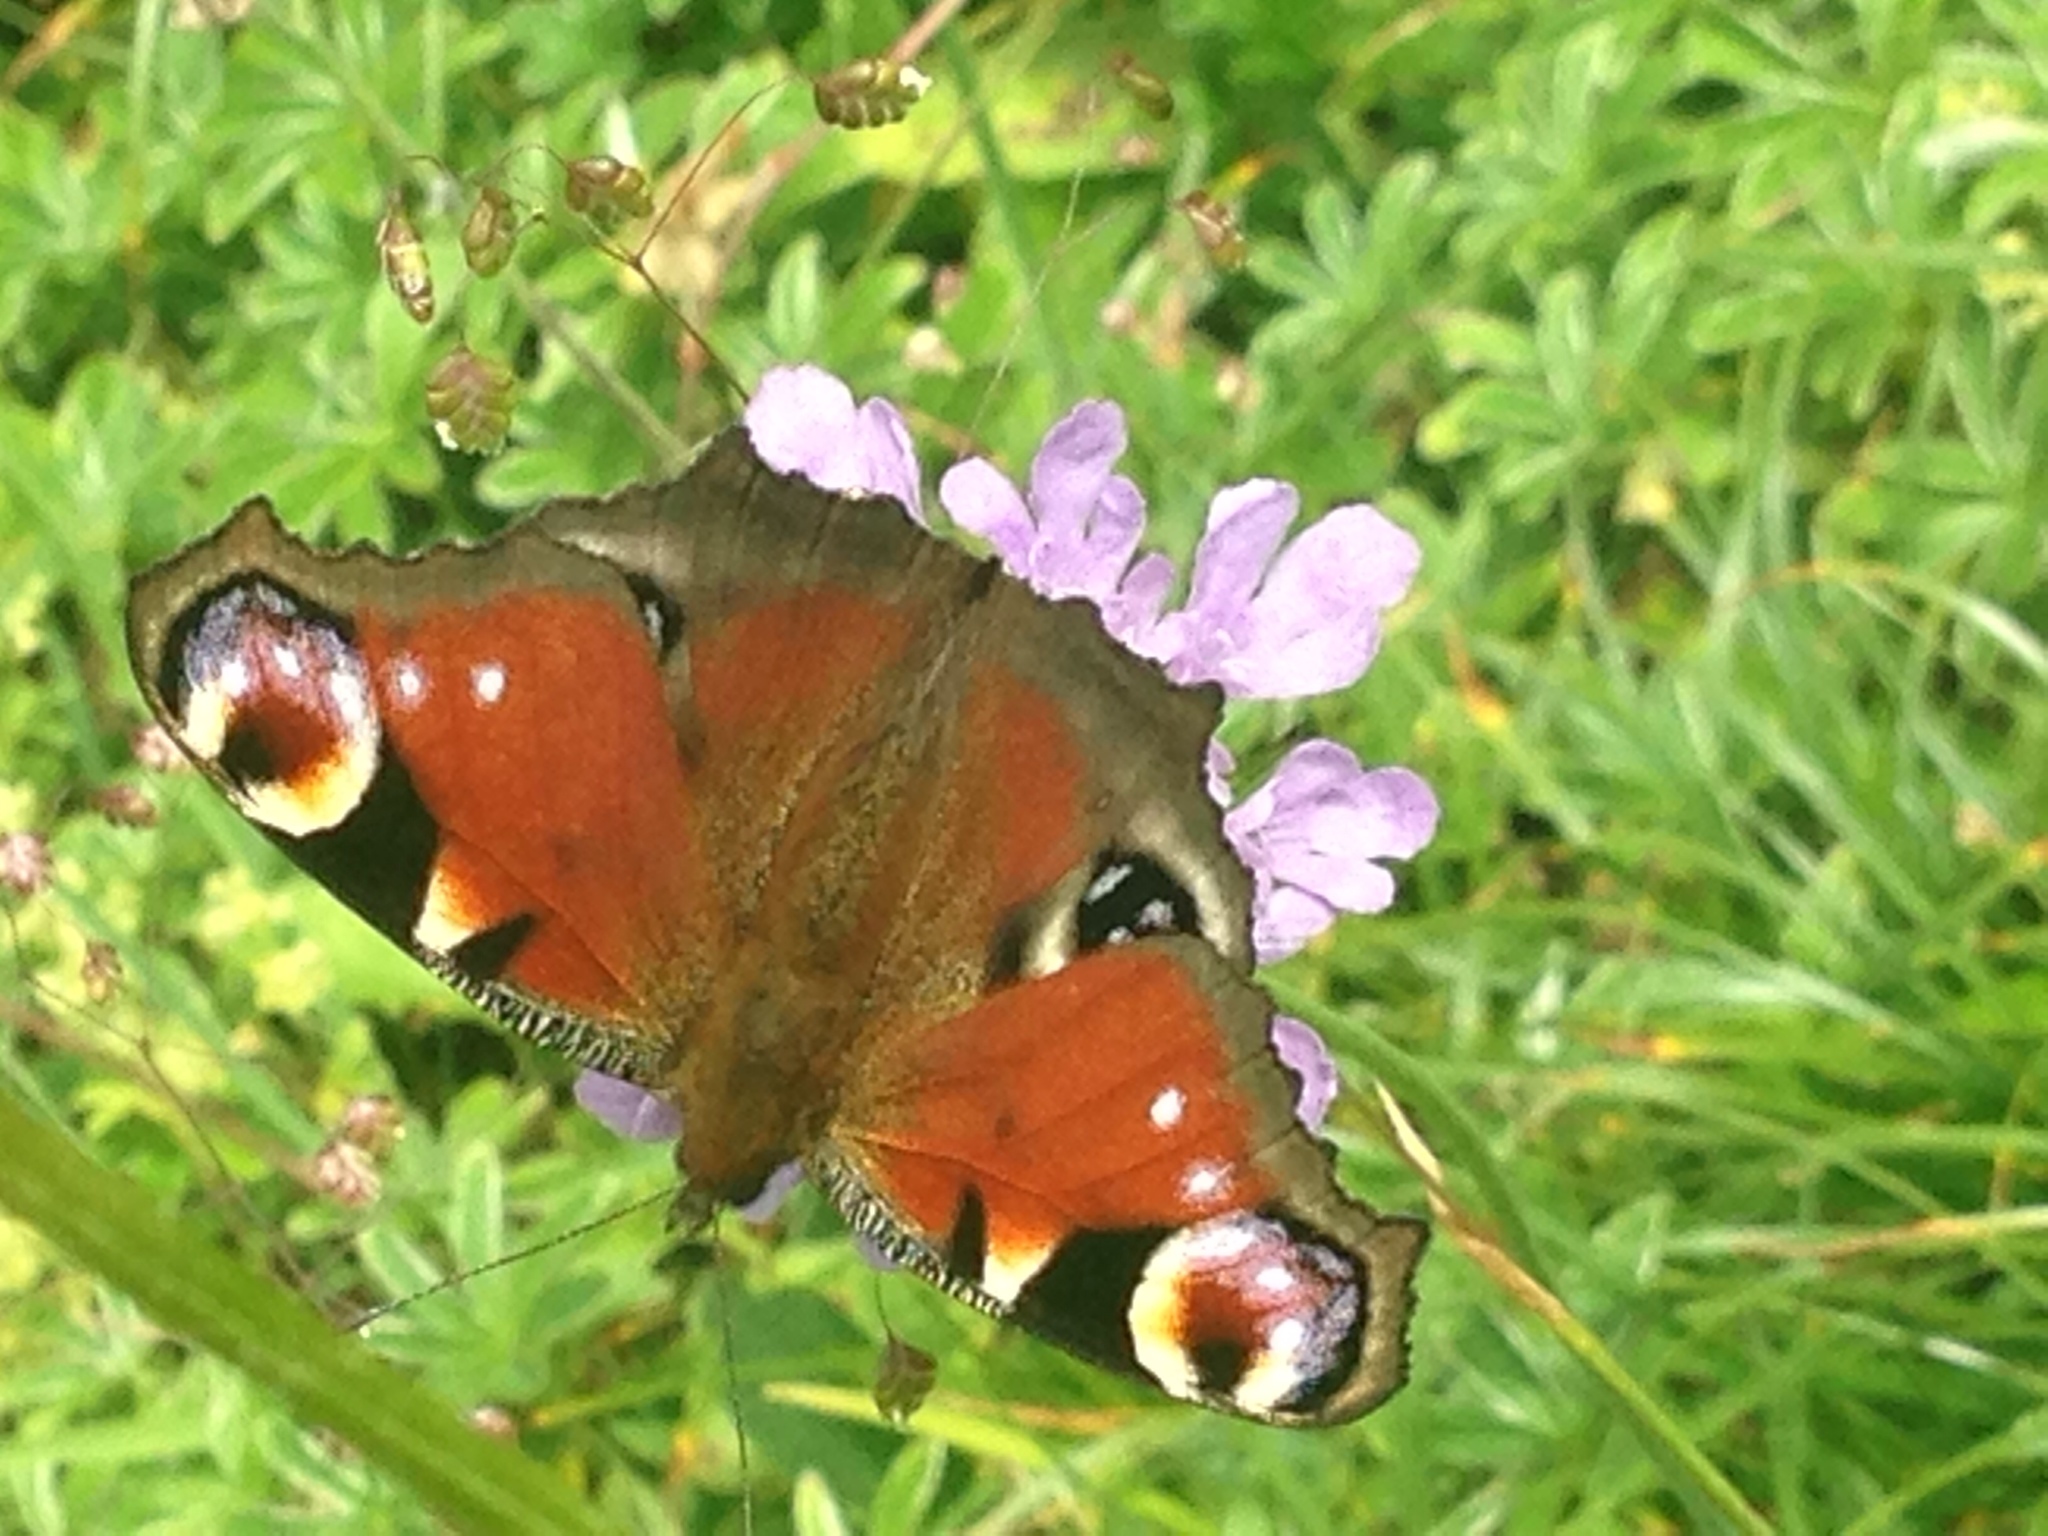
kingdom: Animalia
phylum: Arthropoda
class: Insecta
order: Lepidoptera
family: Nymphalidae
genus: Aglais
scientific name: Aglais io
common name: Peacock
